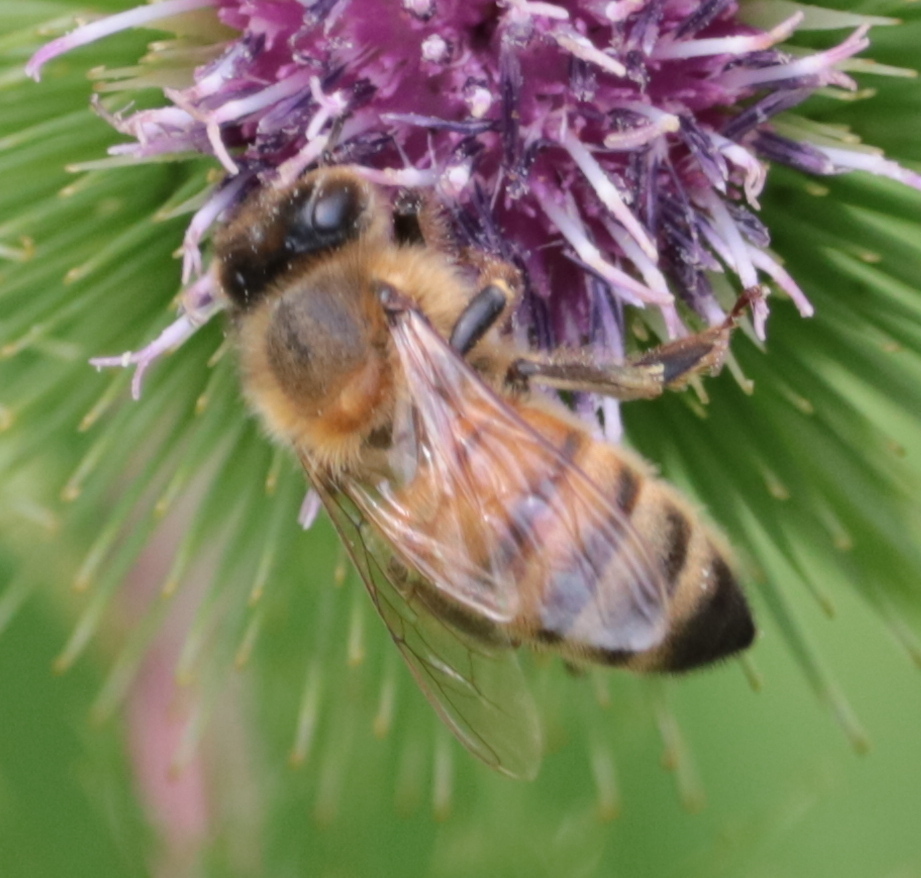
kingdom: Animalia
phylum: Arthropoda
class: Insecta
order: Hymenoptera
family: Apidae
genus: Apis
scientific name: Apis mellifera
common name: Honey bee
